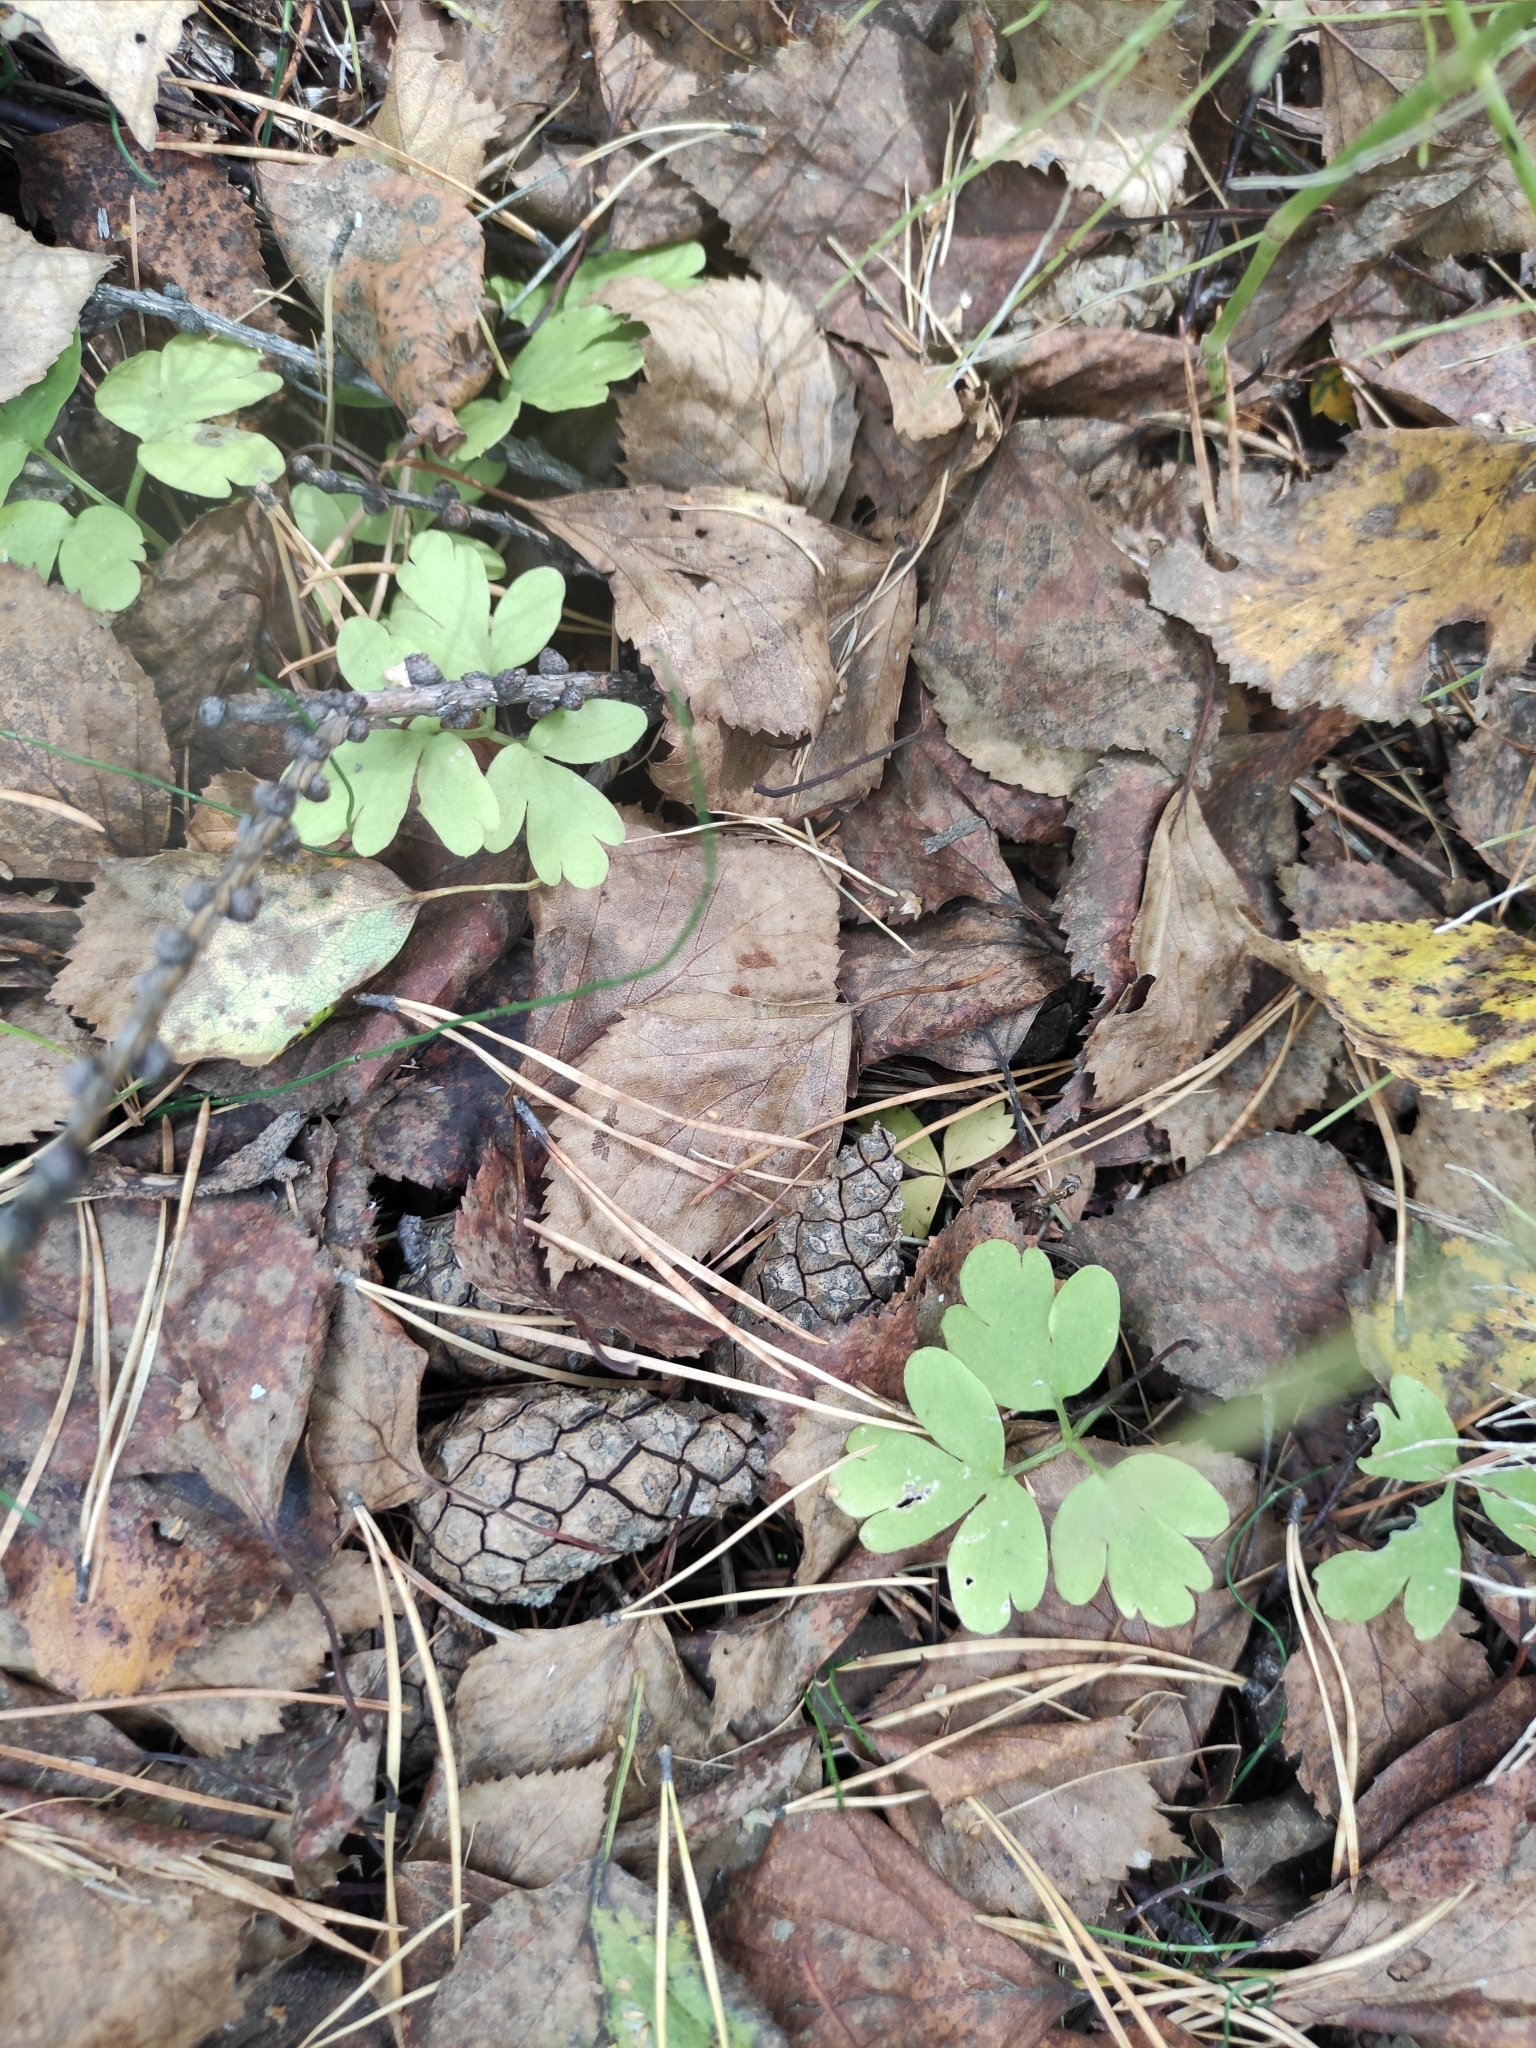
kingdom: Plantae
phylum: Tracheophyta
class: Magnoliopsida
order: Dipsacales
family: Viburnaceae
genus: Adoxa
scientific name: Adoxa moschatellina
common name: Moschatel
